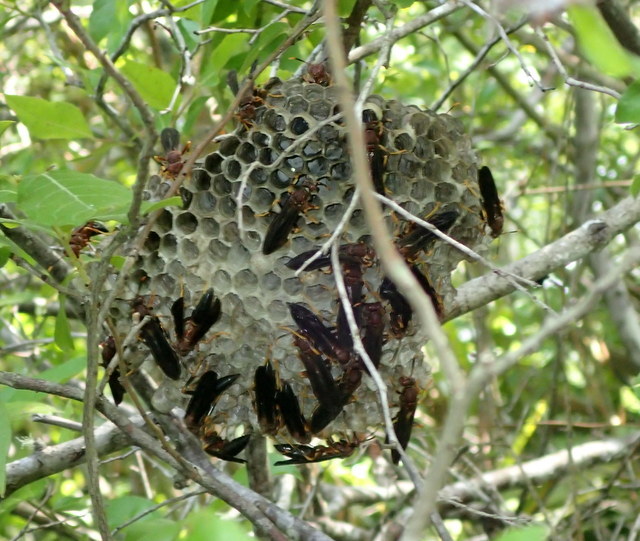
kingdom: Animalia
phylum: Arthropoda
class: Insecta
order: Hymenoptera
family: Eumenidae
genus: Polistes
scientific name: Polistes annularis
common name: Ringed paper wasp
